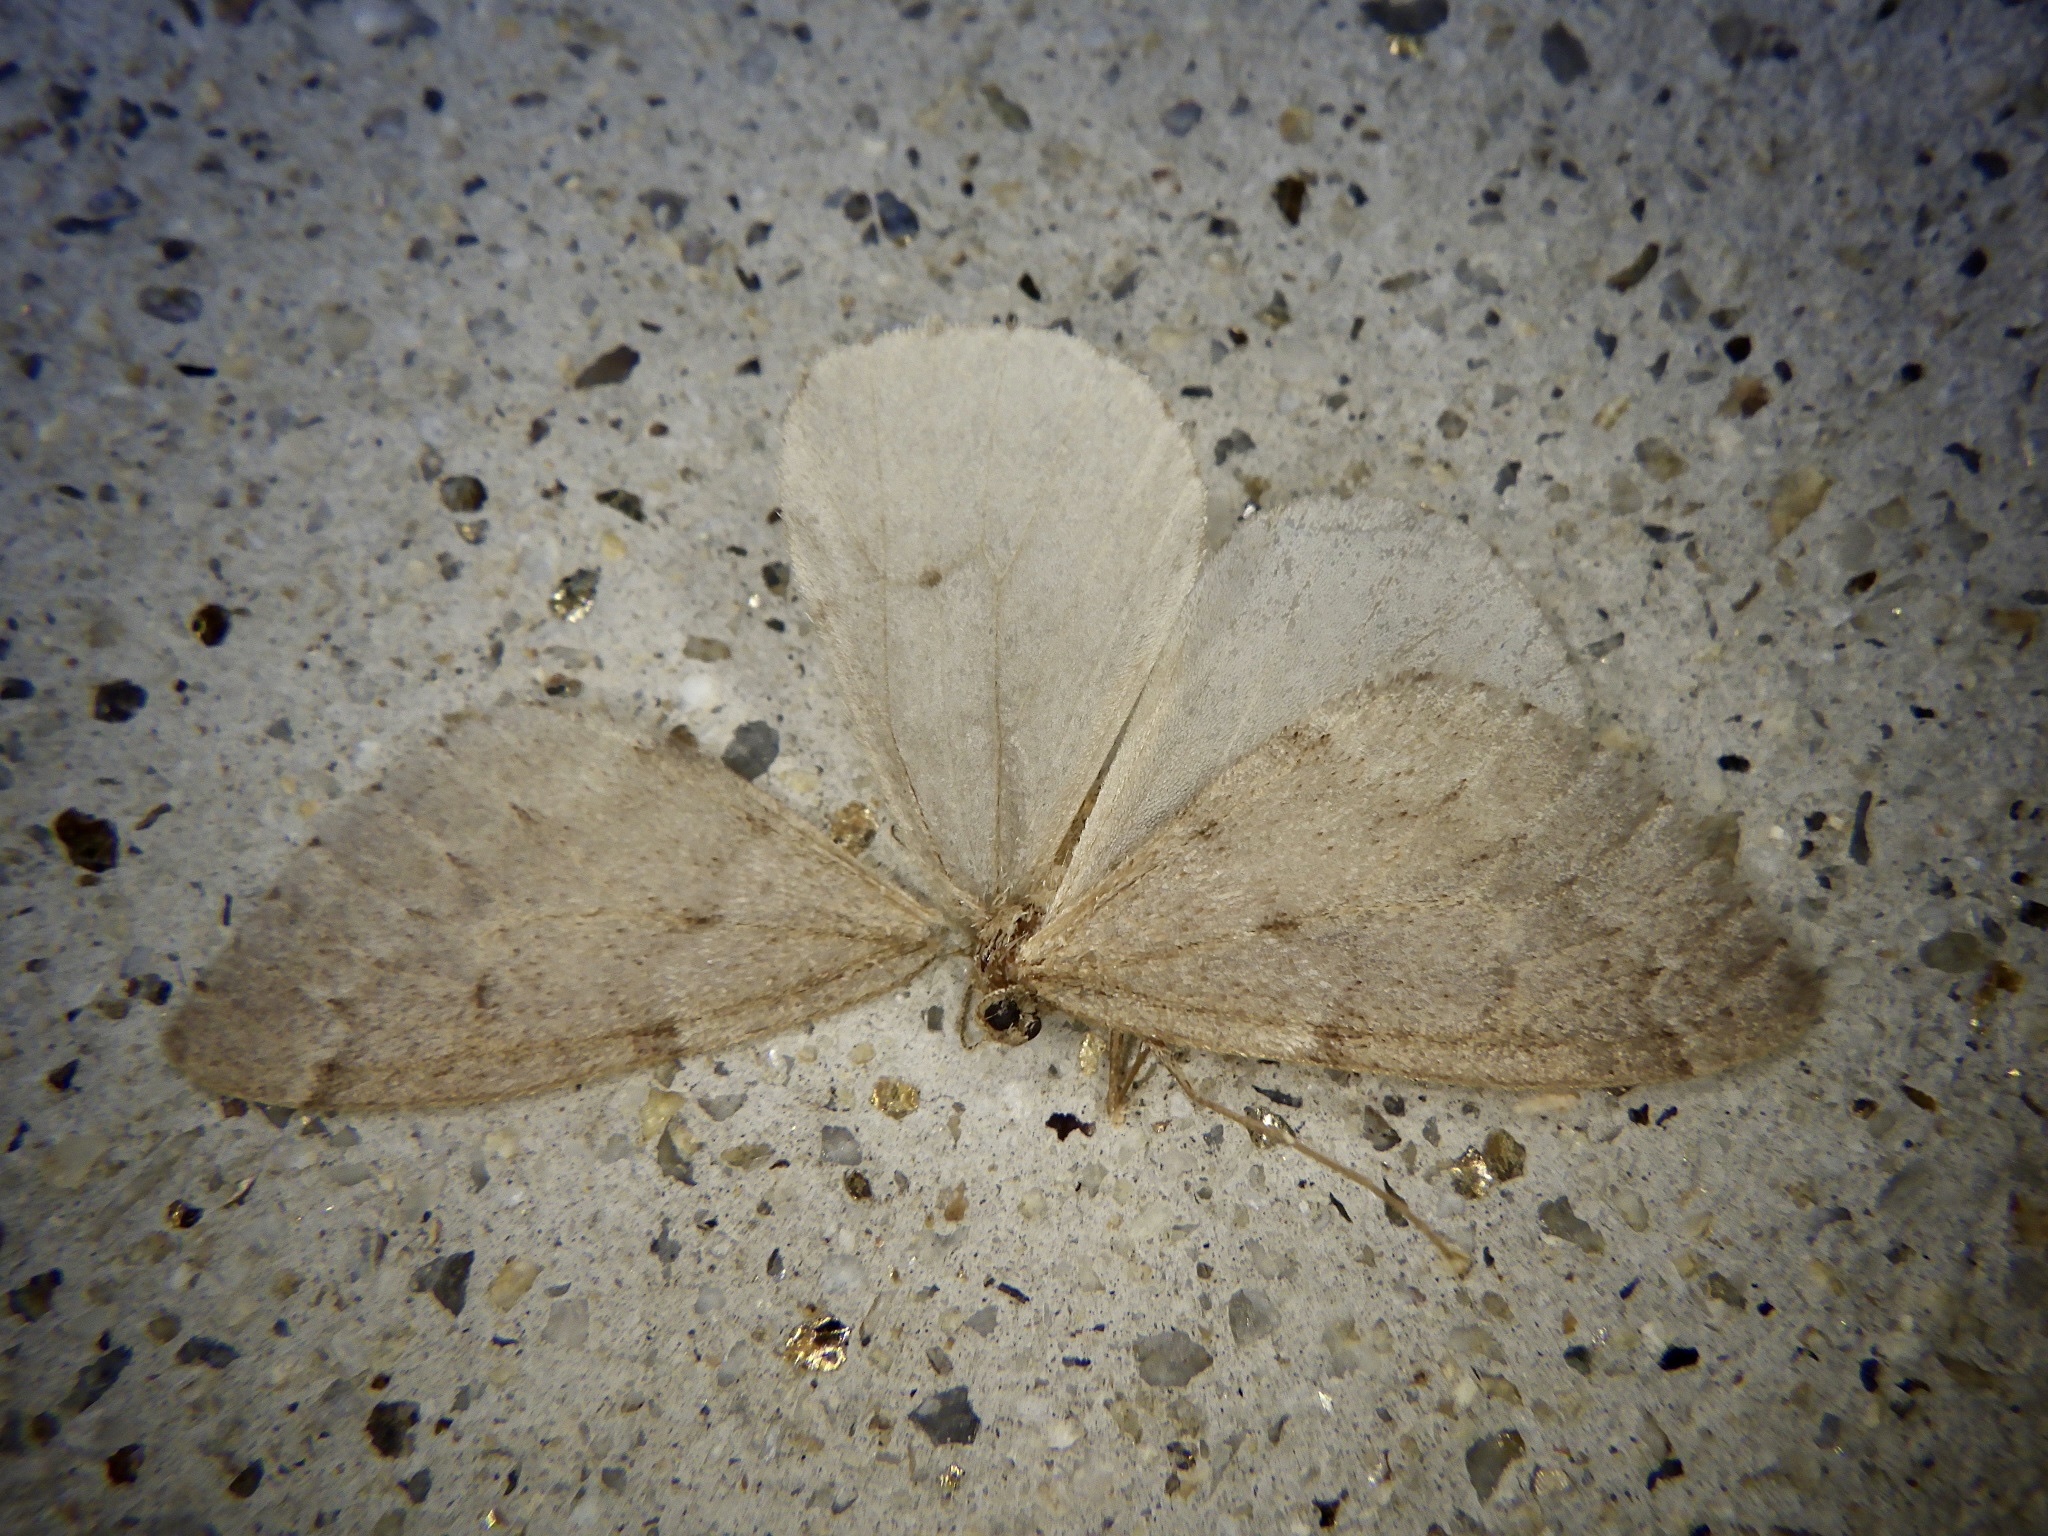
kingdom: Animalia
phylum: Arthropoda
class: Insecta
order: Lepidoptera
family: Geometridae
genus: Inurois
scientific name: Inurois tenuis
